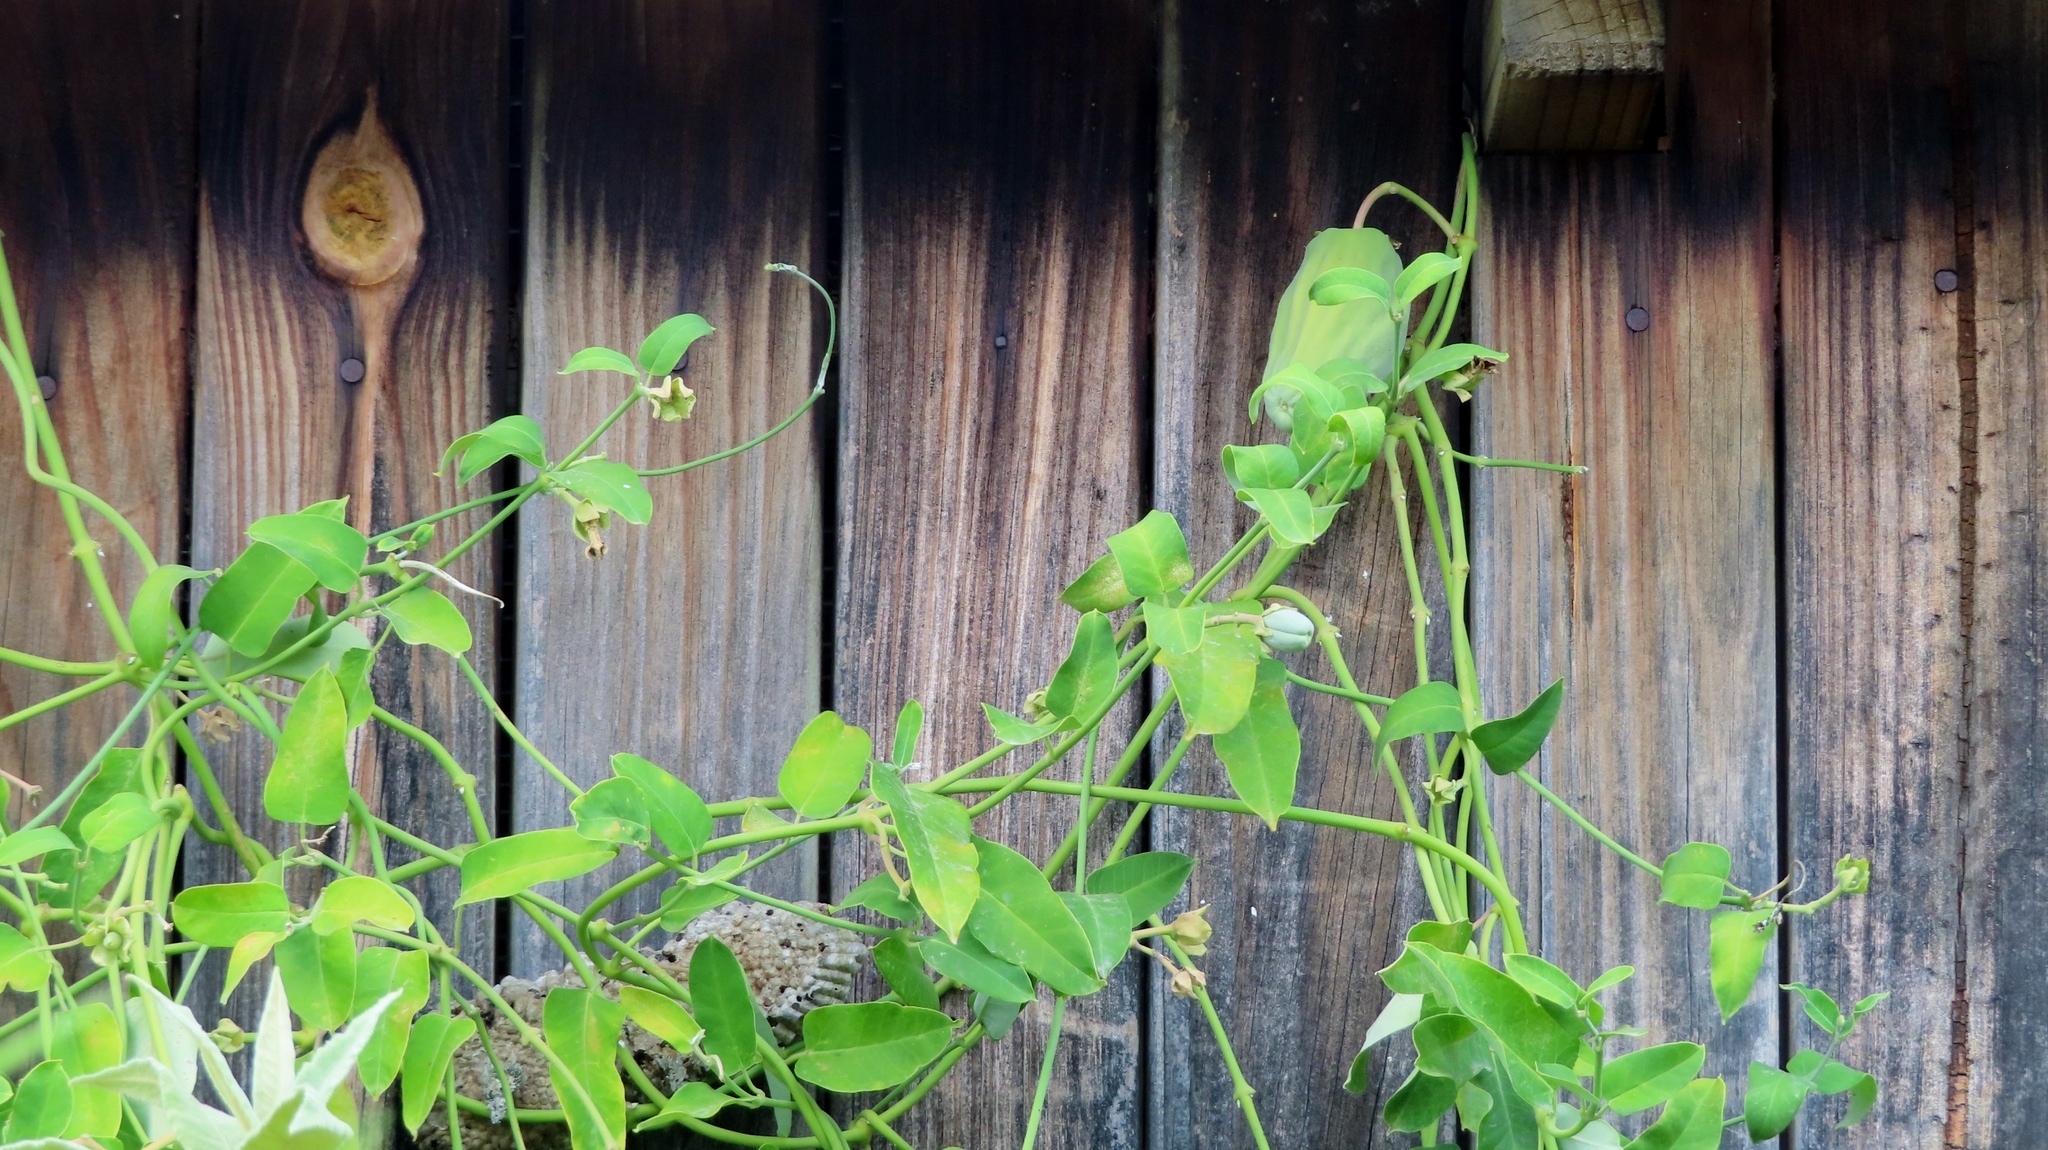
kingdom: Plantae
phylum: Tracheophyta
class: Magnoliopsida
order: Gentianales
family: Apocynaceae
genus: Araujia
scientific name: Araujia sericifera
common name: White bladderflower
